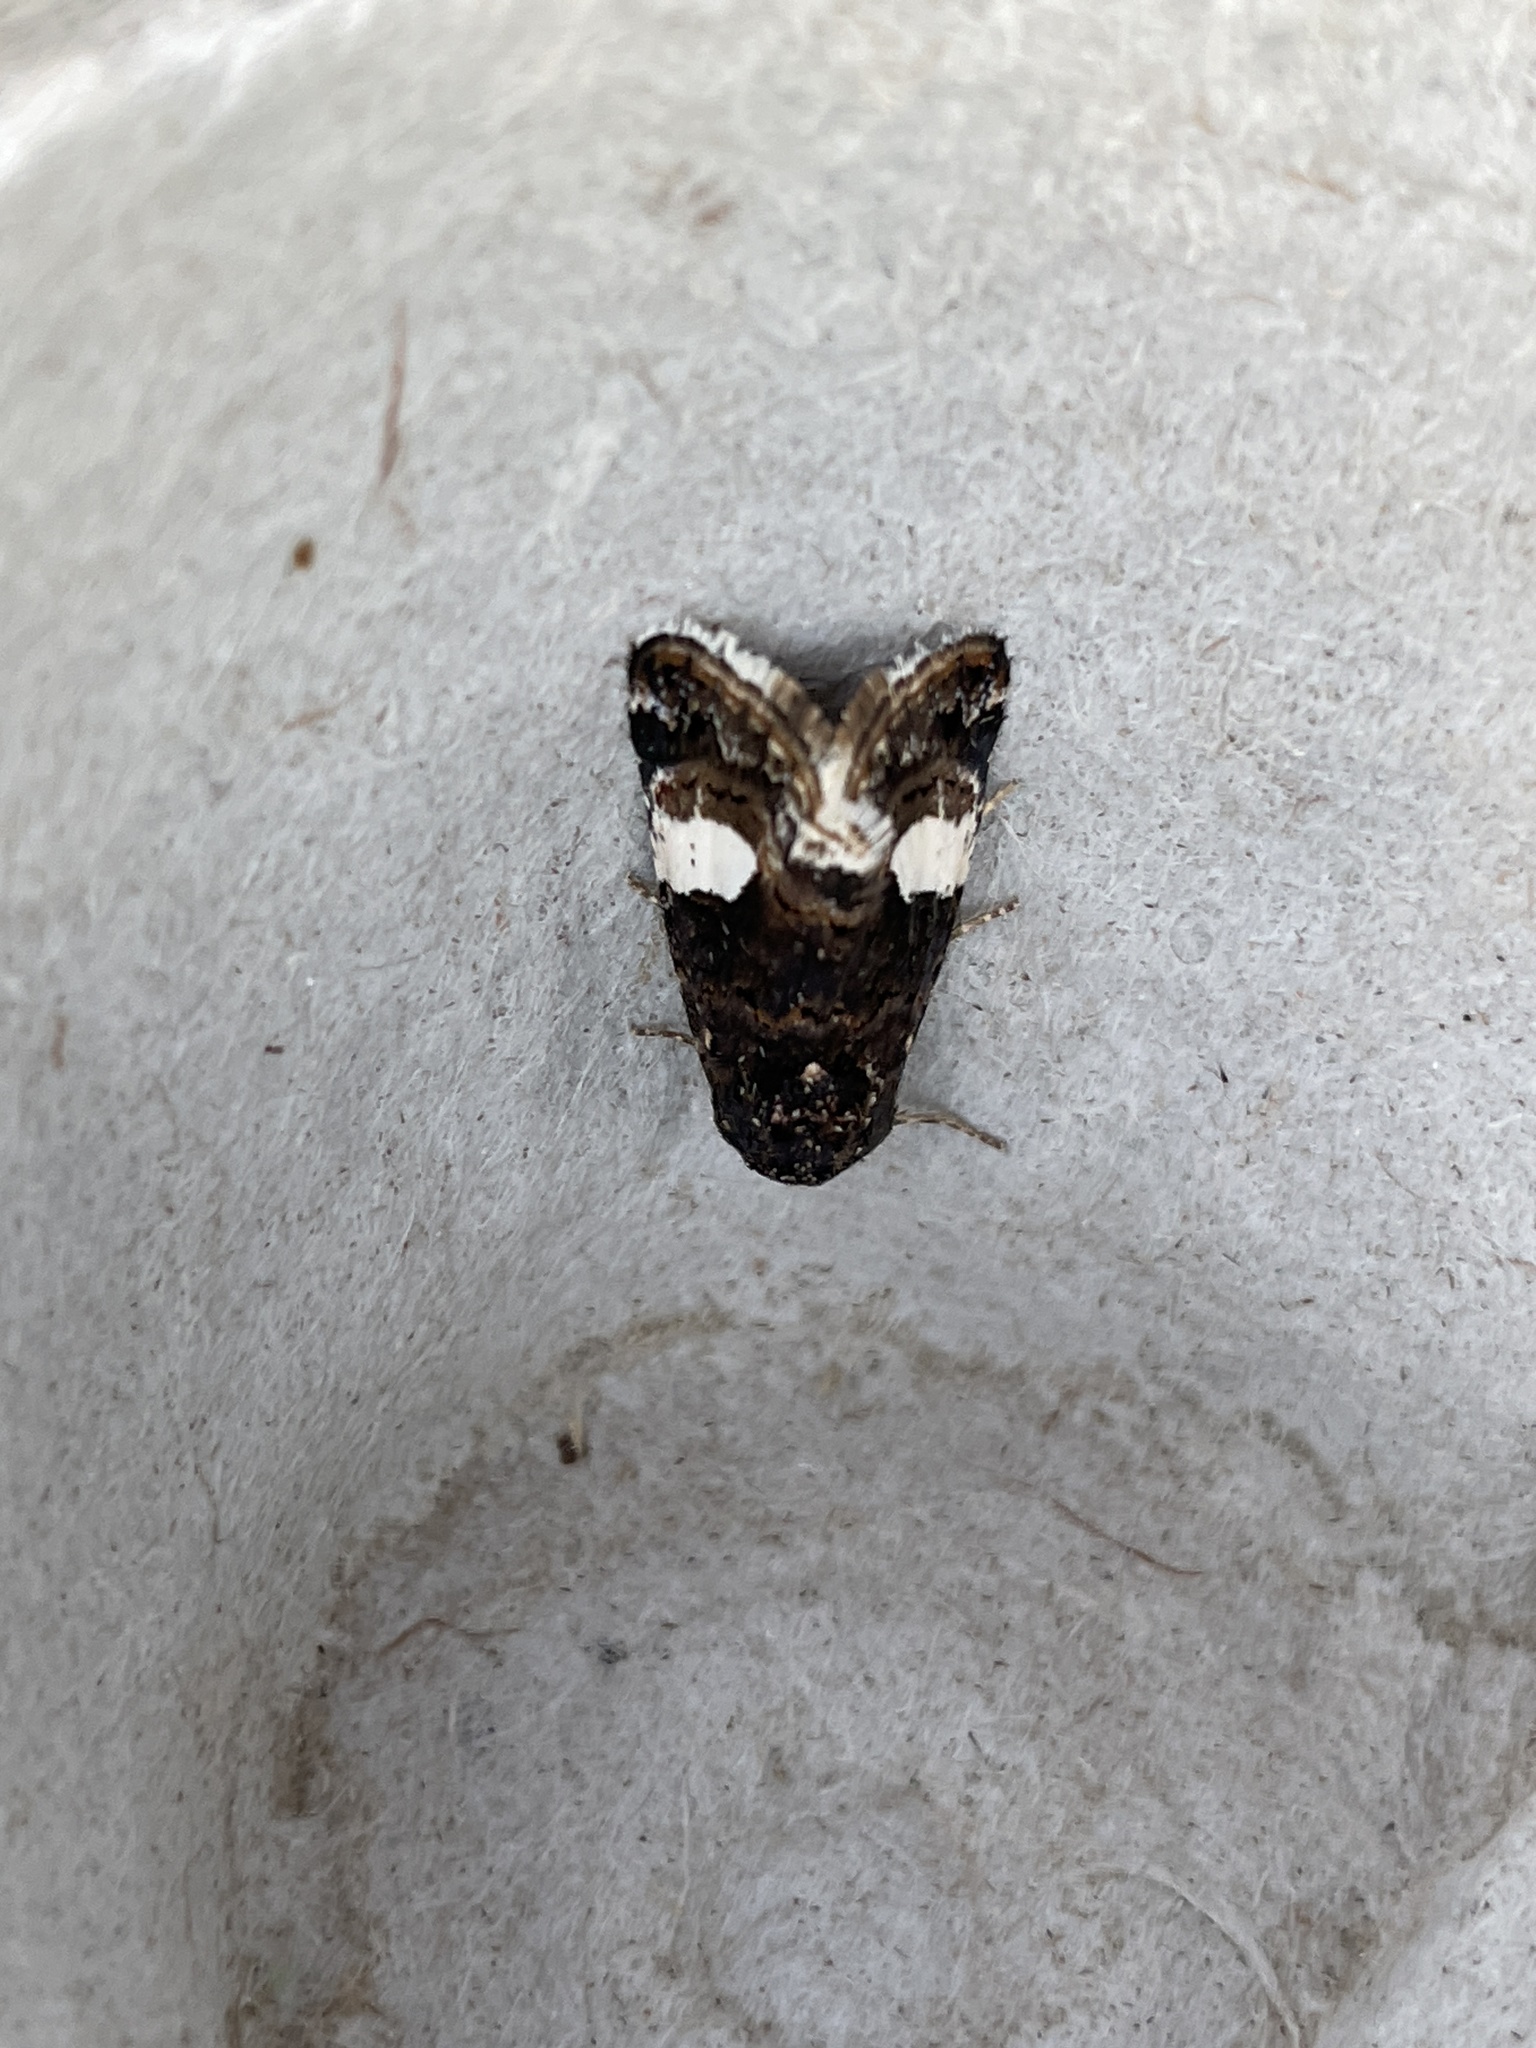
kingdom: Animalia
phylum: Arthropoda
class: Insecta
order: Lepidoptera
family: Erebidae
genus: Tyta
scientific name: Tyta luctuosa
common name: Four-spotted
